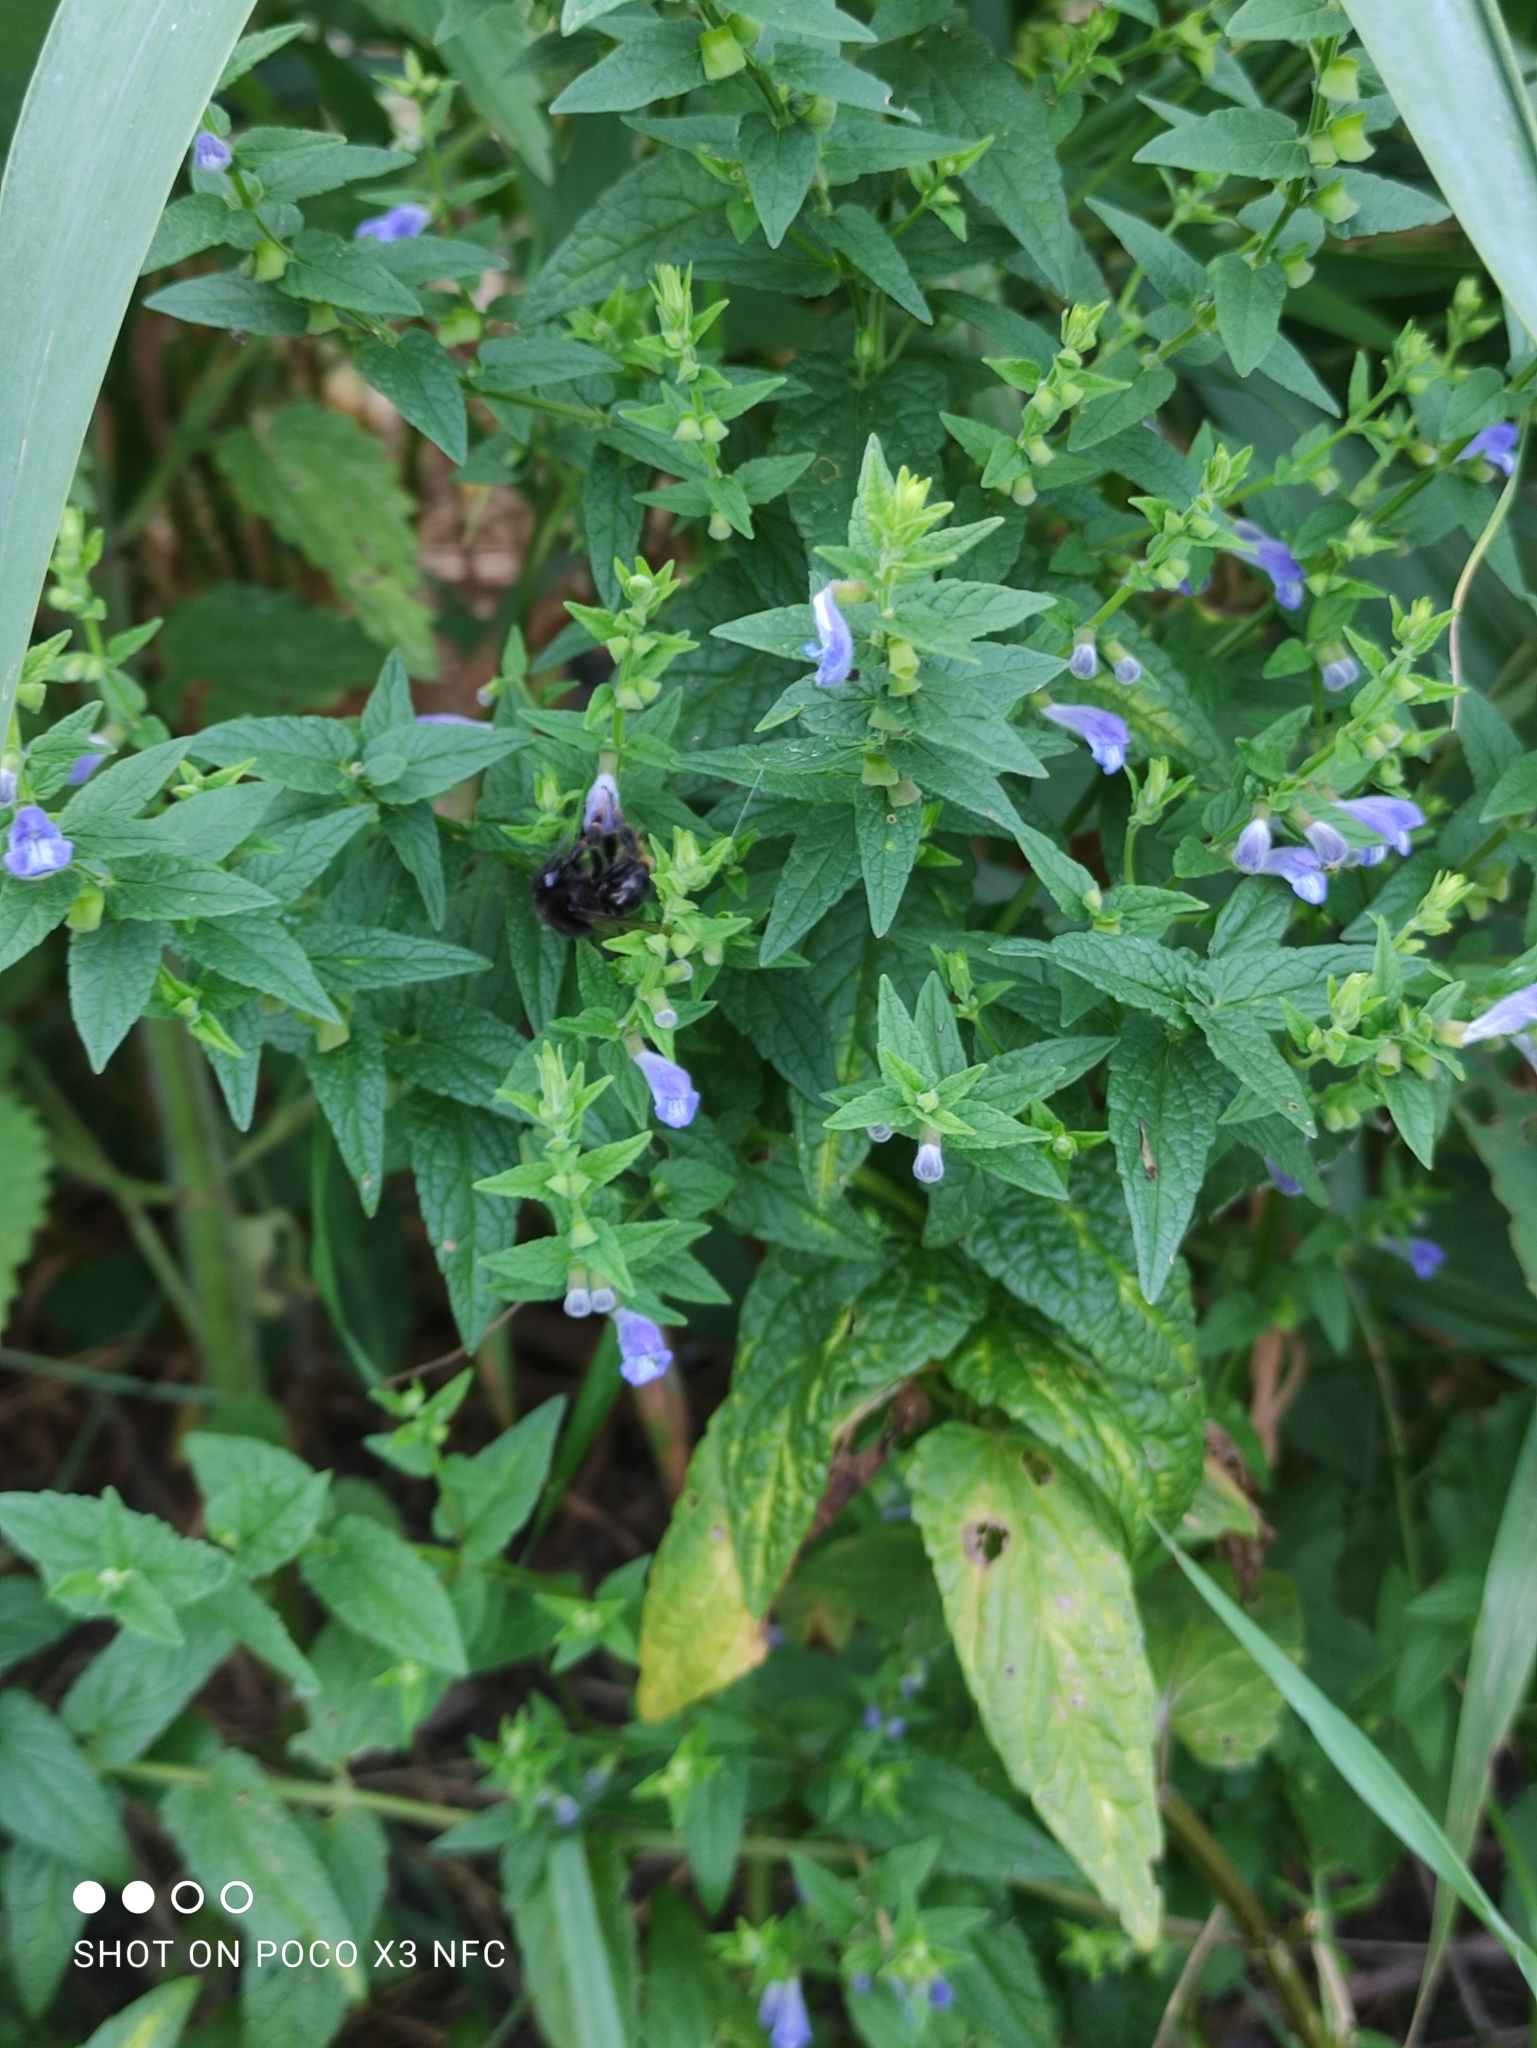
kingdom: Plantae
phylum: Tracheophyta
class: Magnoliopsida
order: Lamiales
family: Lamiaceae
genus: Scutellaria
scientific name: Scutellaria galericulata
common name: Skullcap
